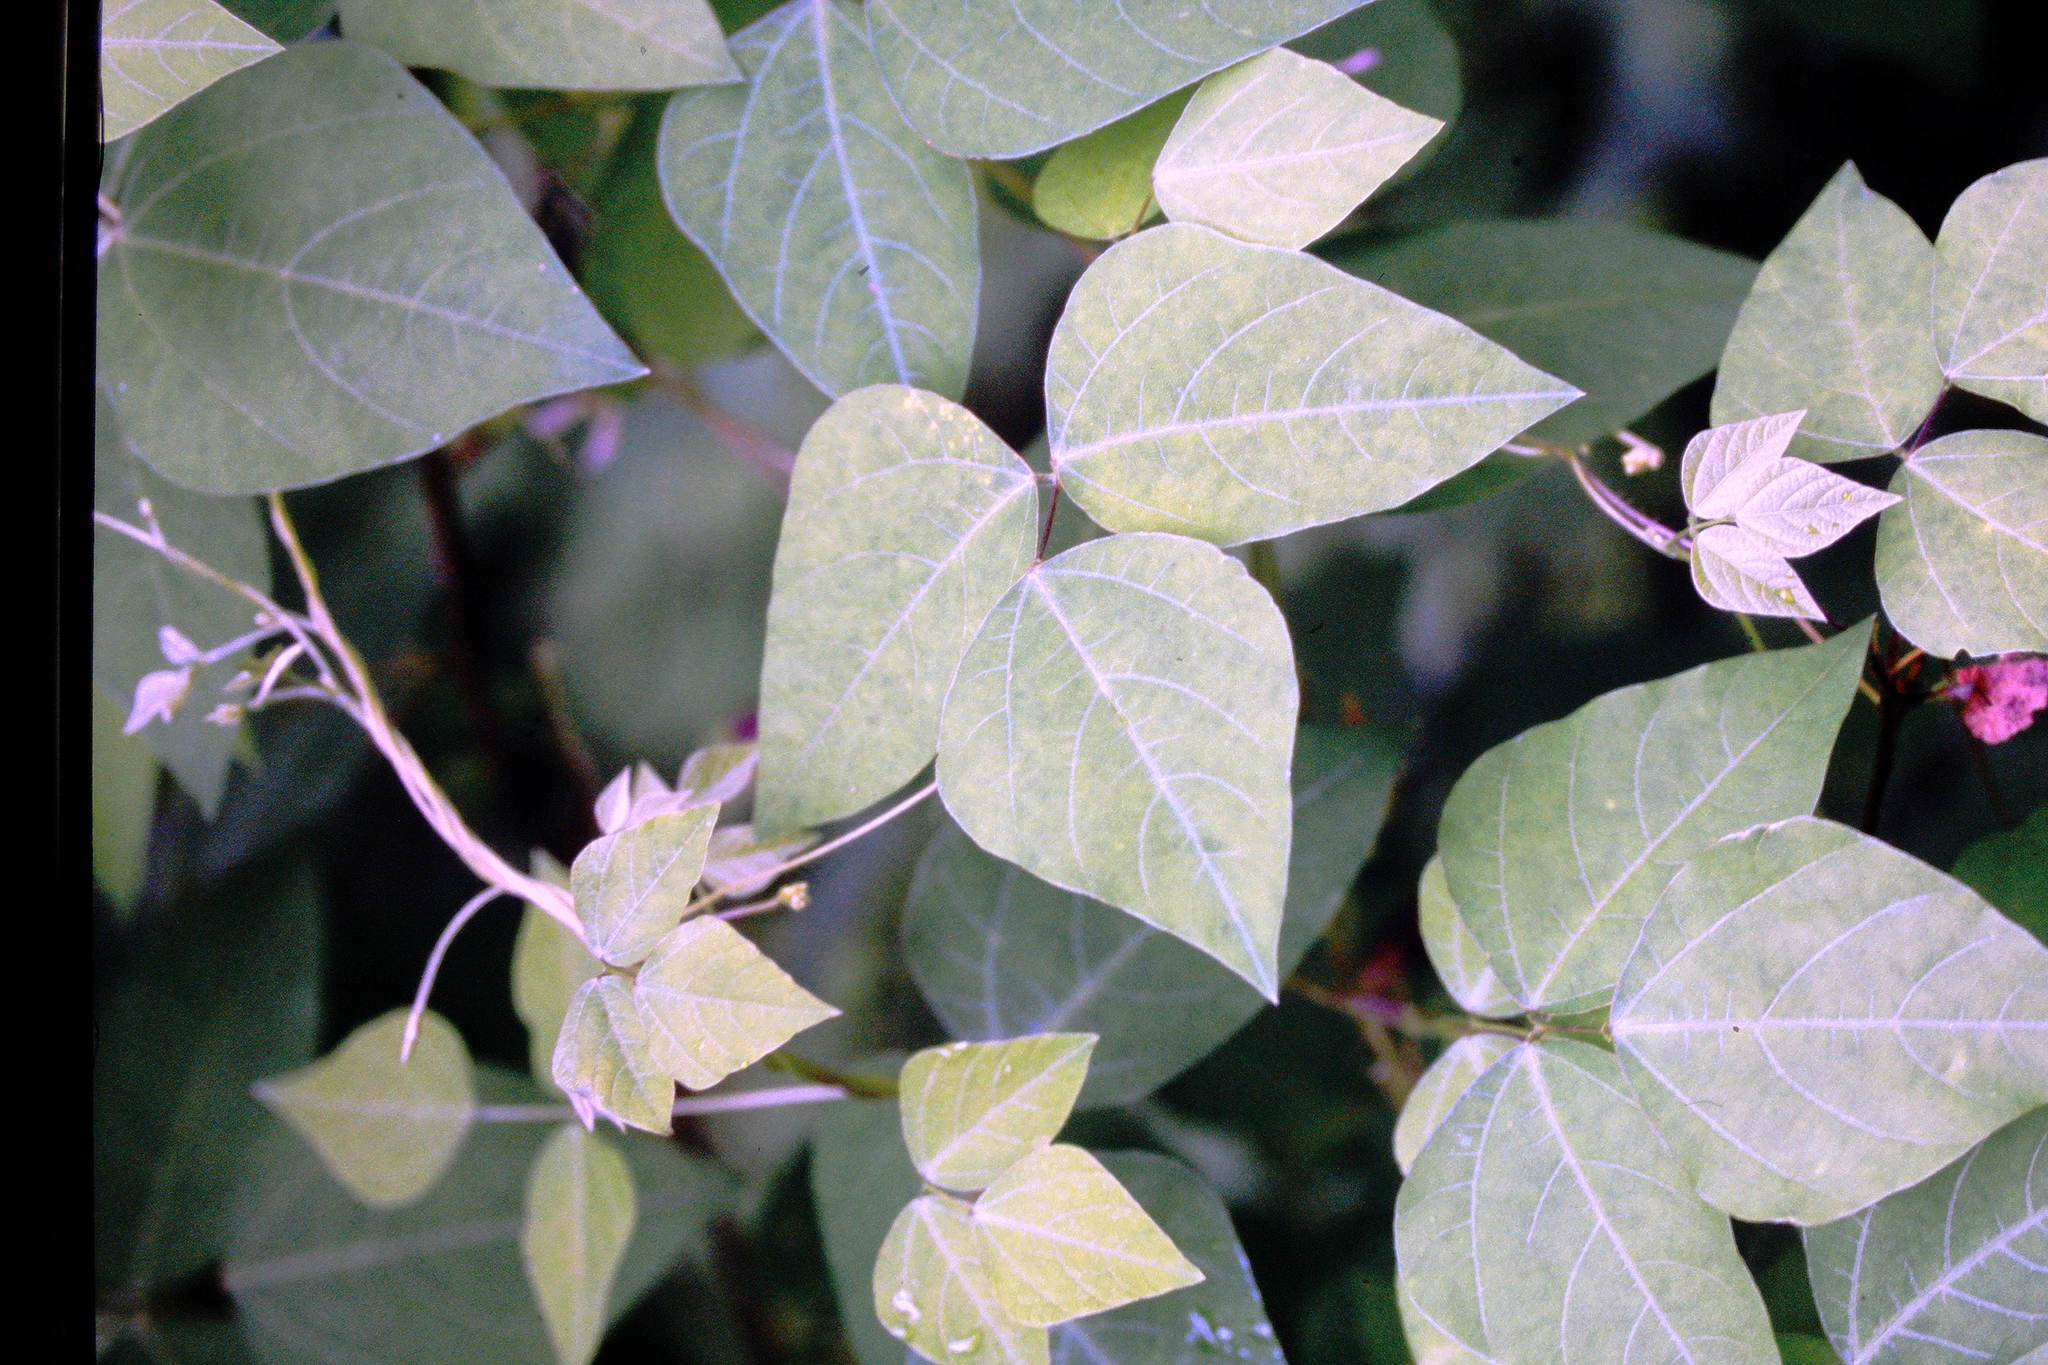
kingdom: Plantae
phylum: Tracheophyta
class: Magnoliopsida
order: Fabales
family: Fabaceae
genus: Amphicarpaea
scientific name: Amphicarpaea bracteata
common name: American hog peanut
